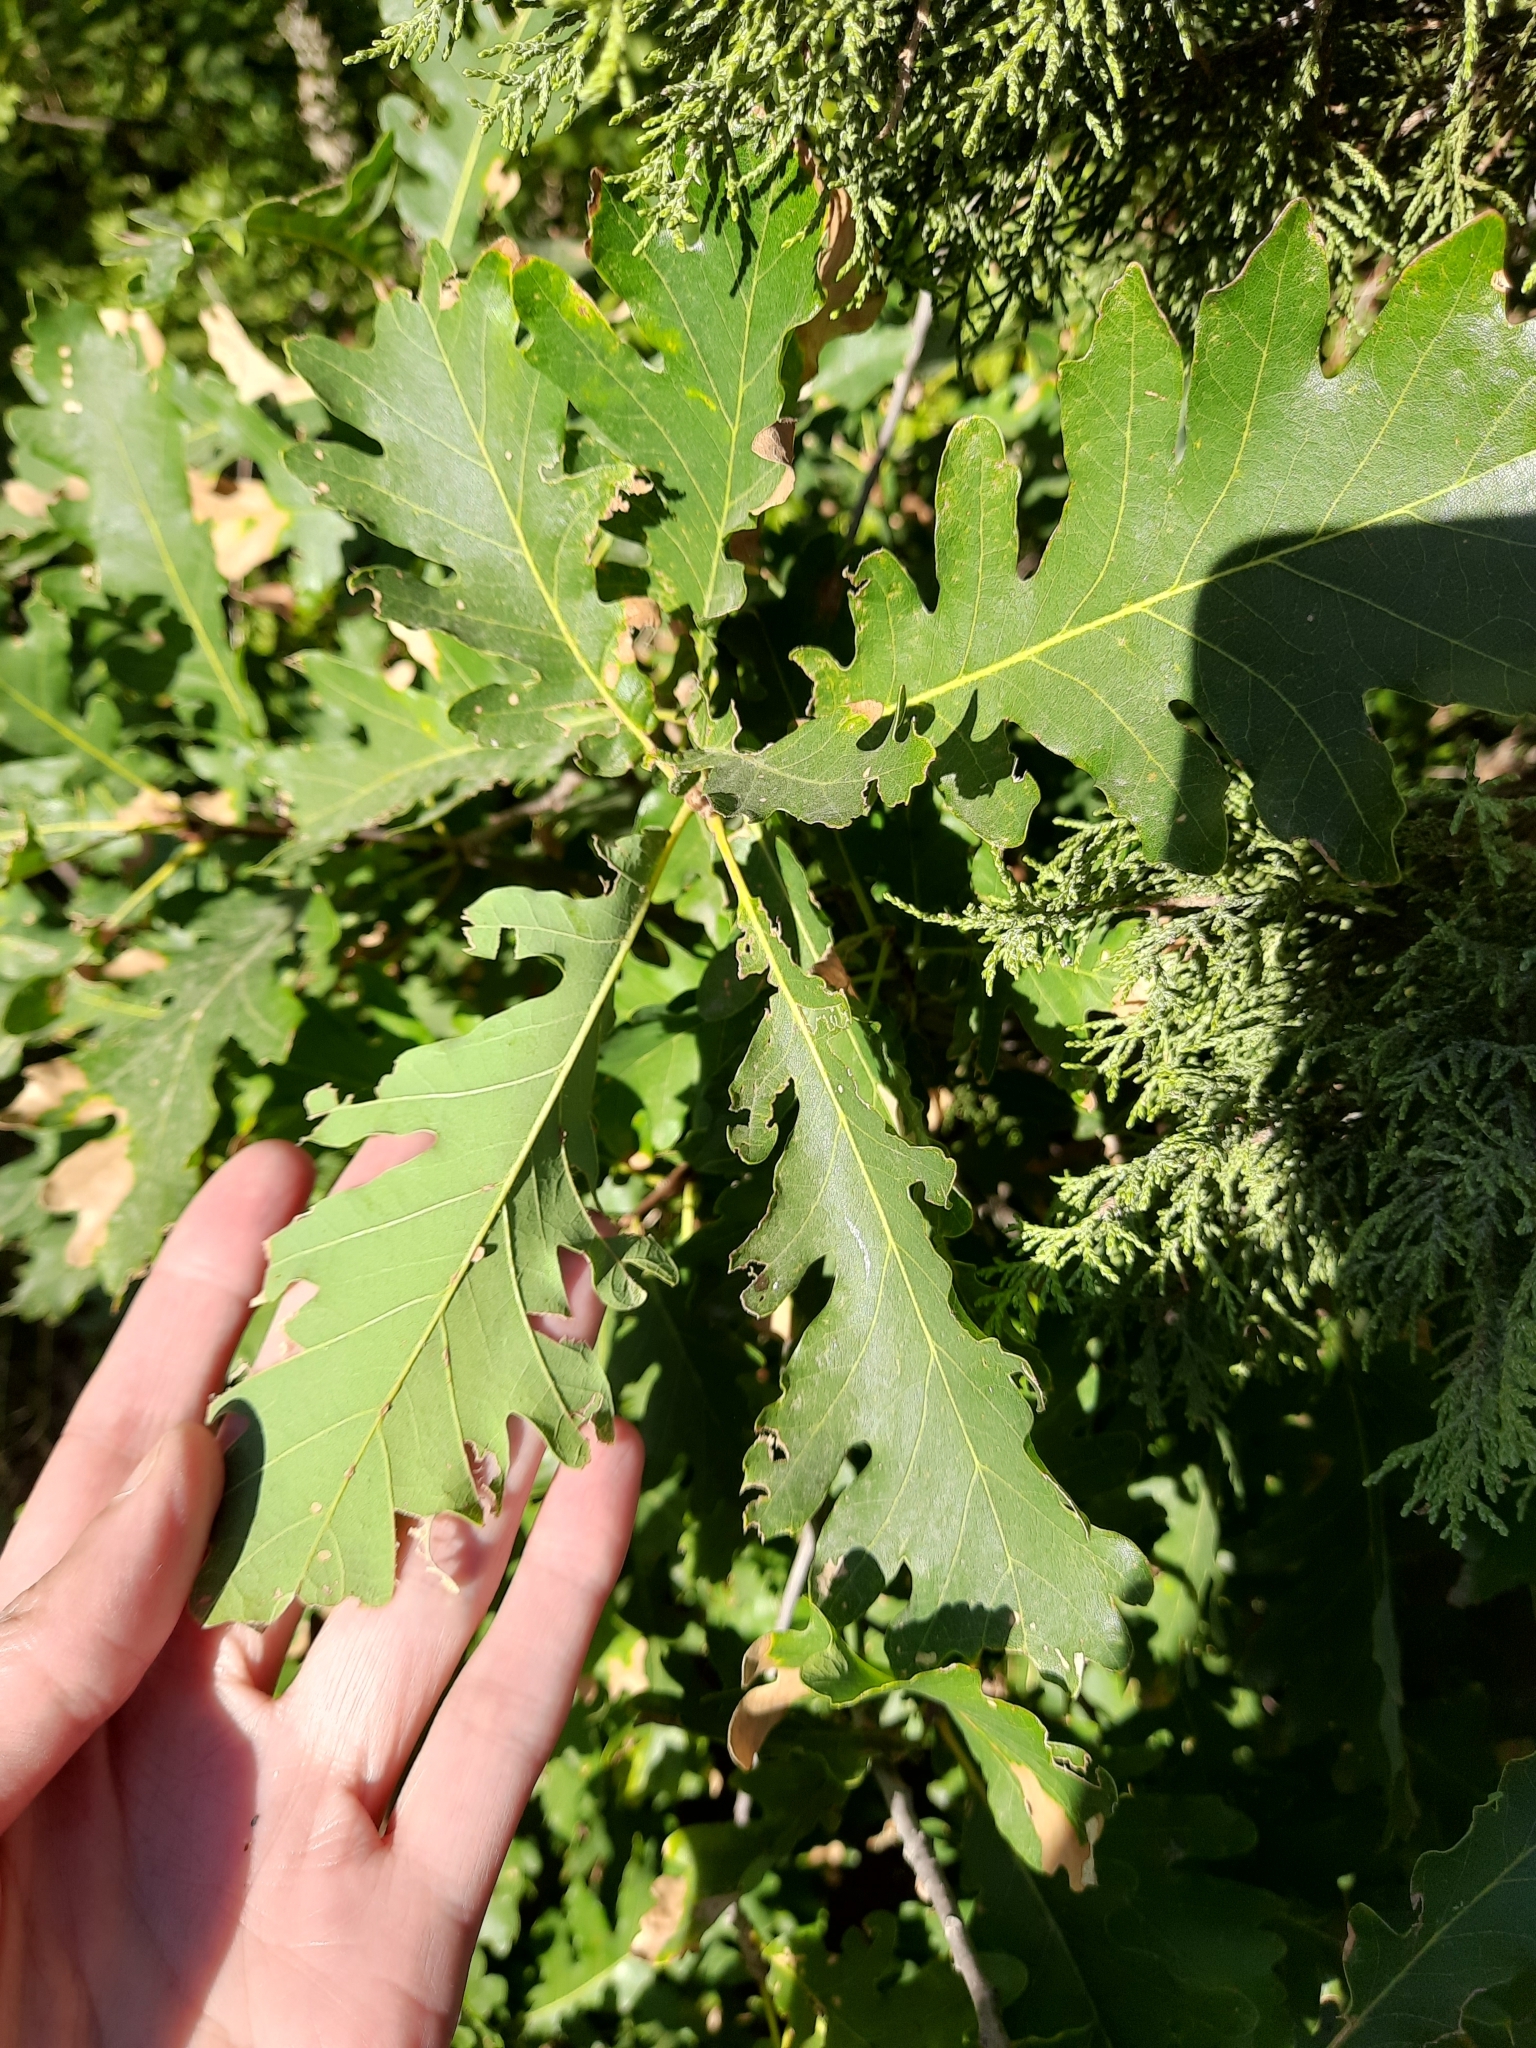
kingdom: Plantae
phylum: Tracheophyta
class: Magnoliopsida
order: Fagales
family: Fagaceae
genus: Quercus
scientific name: Quercus pubescens
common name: Downy oak
